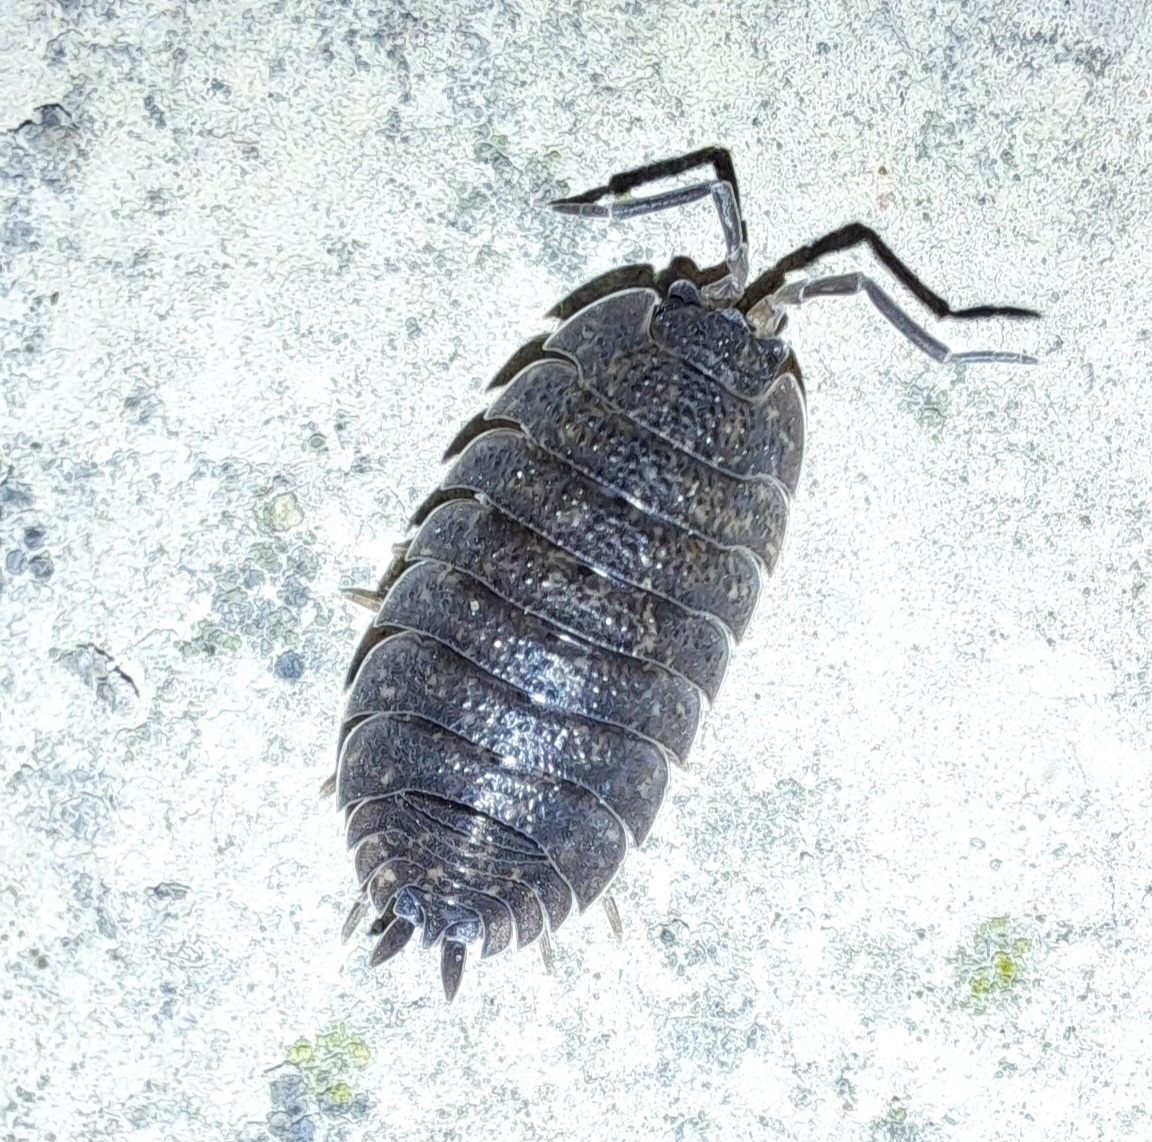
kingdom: Animalia
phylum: Arthropoda
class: Malacostraca
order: Isopoda
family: Porcellionidae
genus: Porcellio
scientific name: Porcellio scaber
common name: Common rough woodlouse
